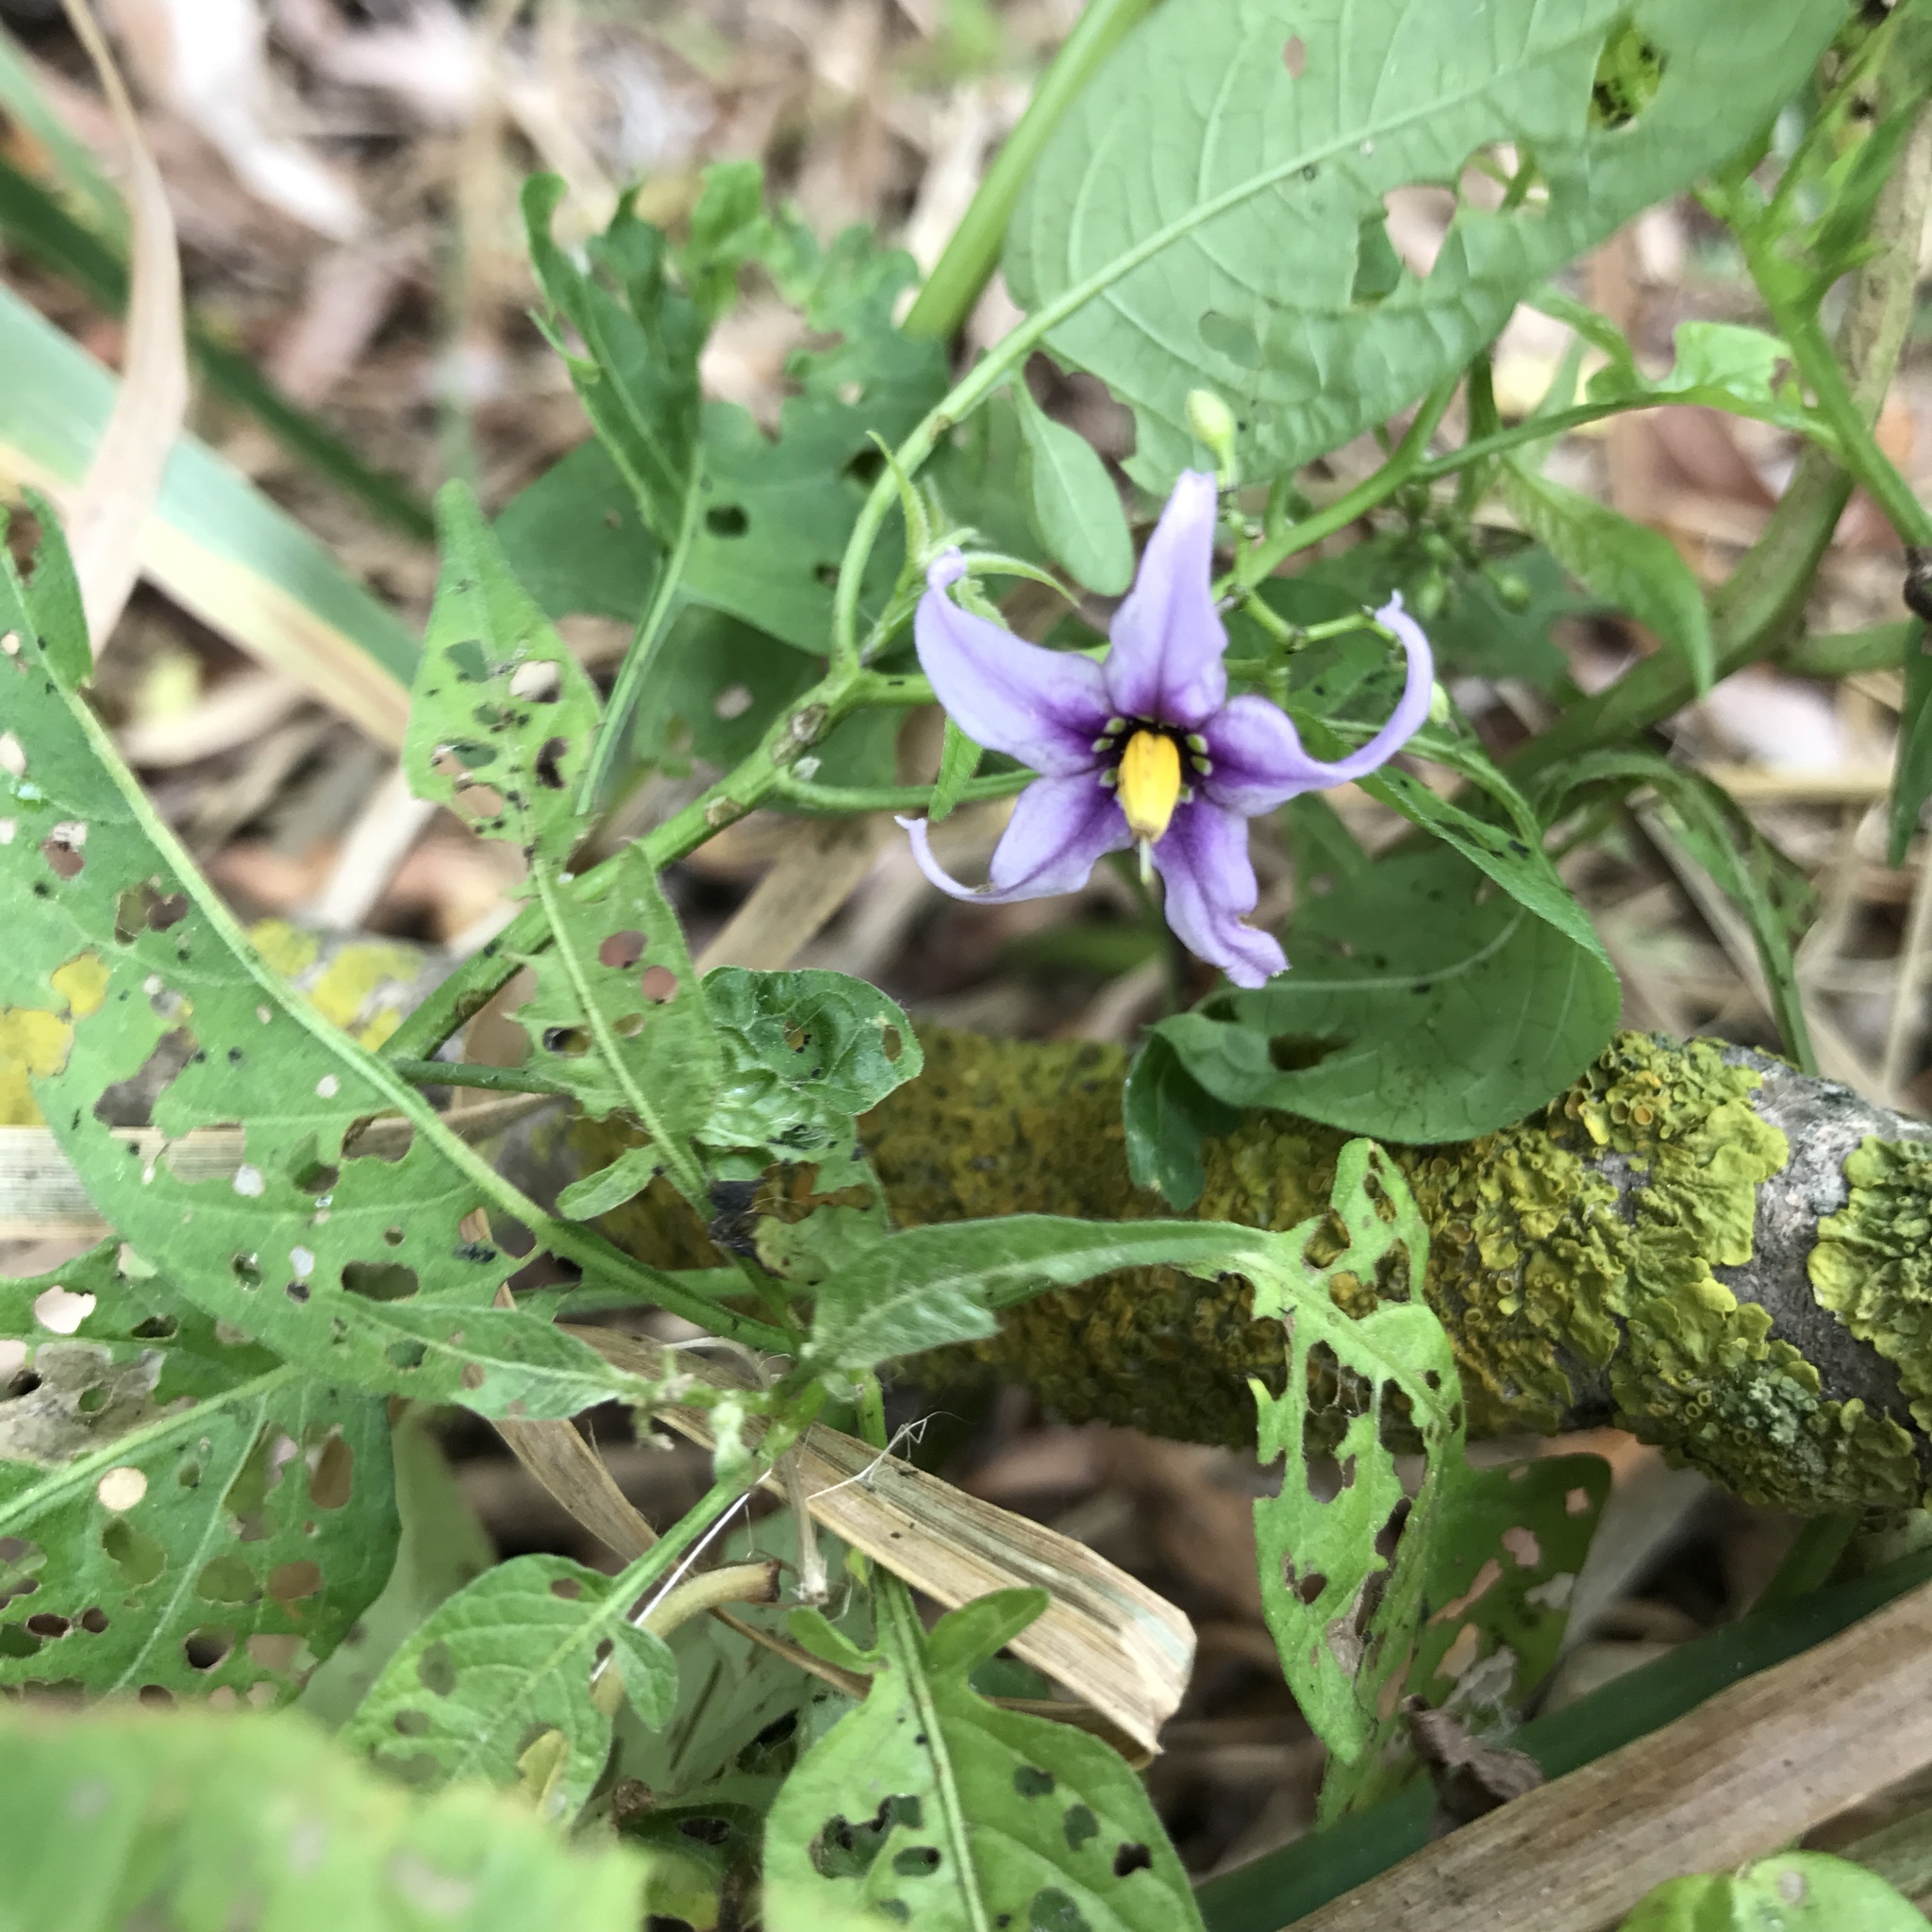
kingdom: Plantae
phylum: Tracheophyta
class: Magnoliopsida
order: Solanales
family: Solanaceae
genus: Solanum
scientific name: Solanum dulcamara
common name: Climbing nightshade
